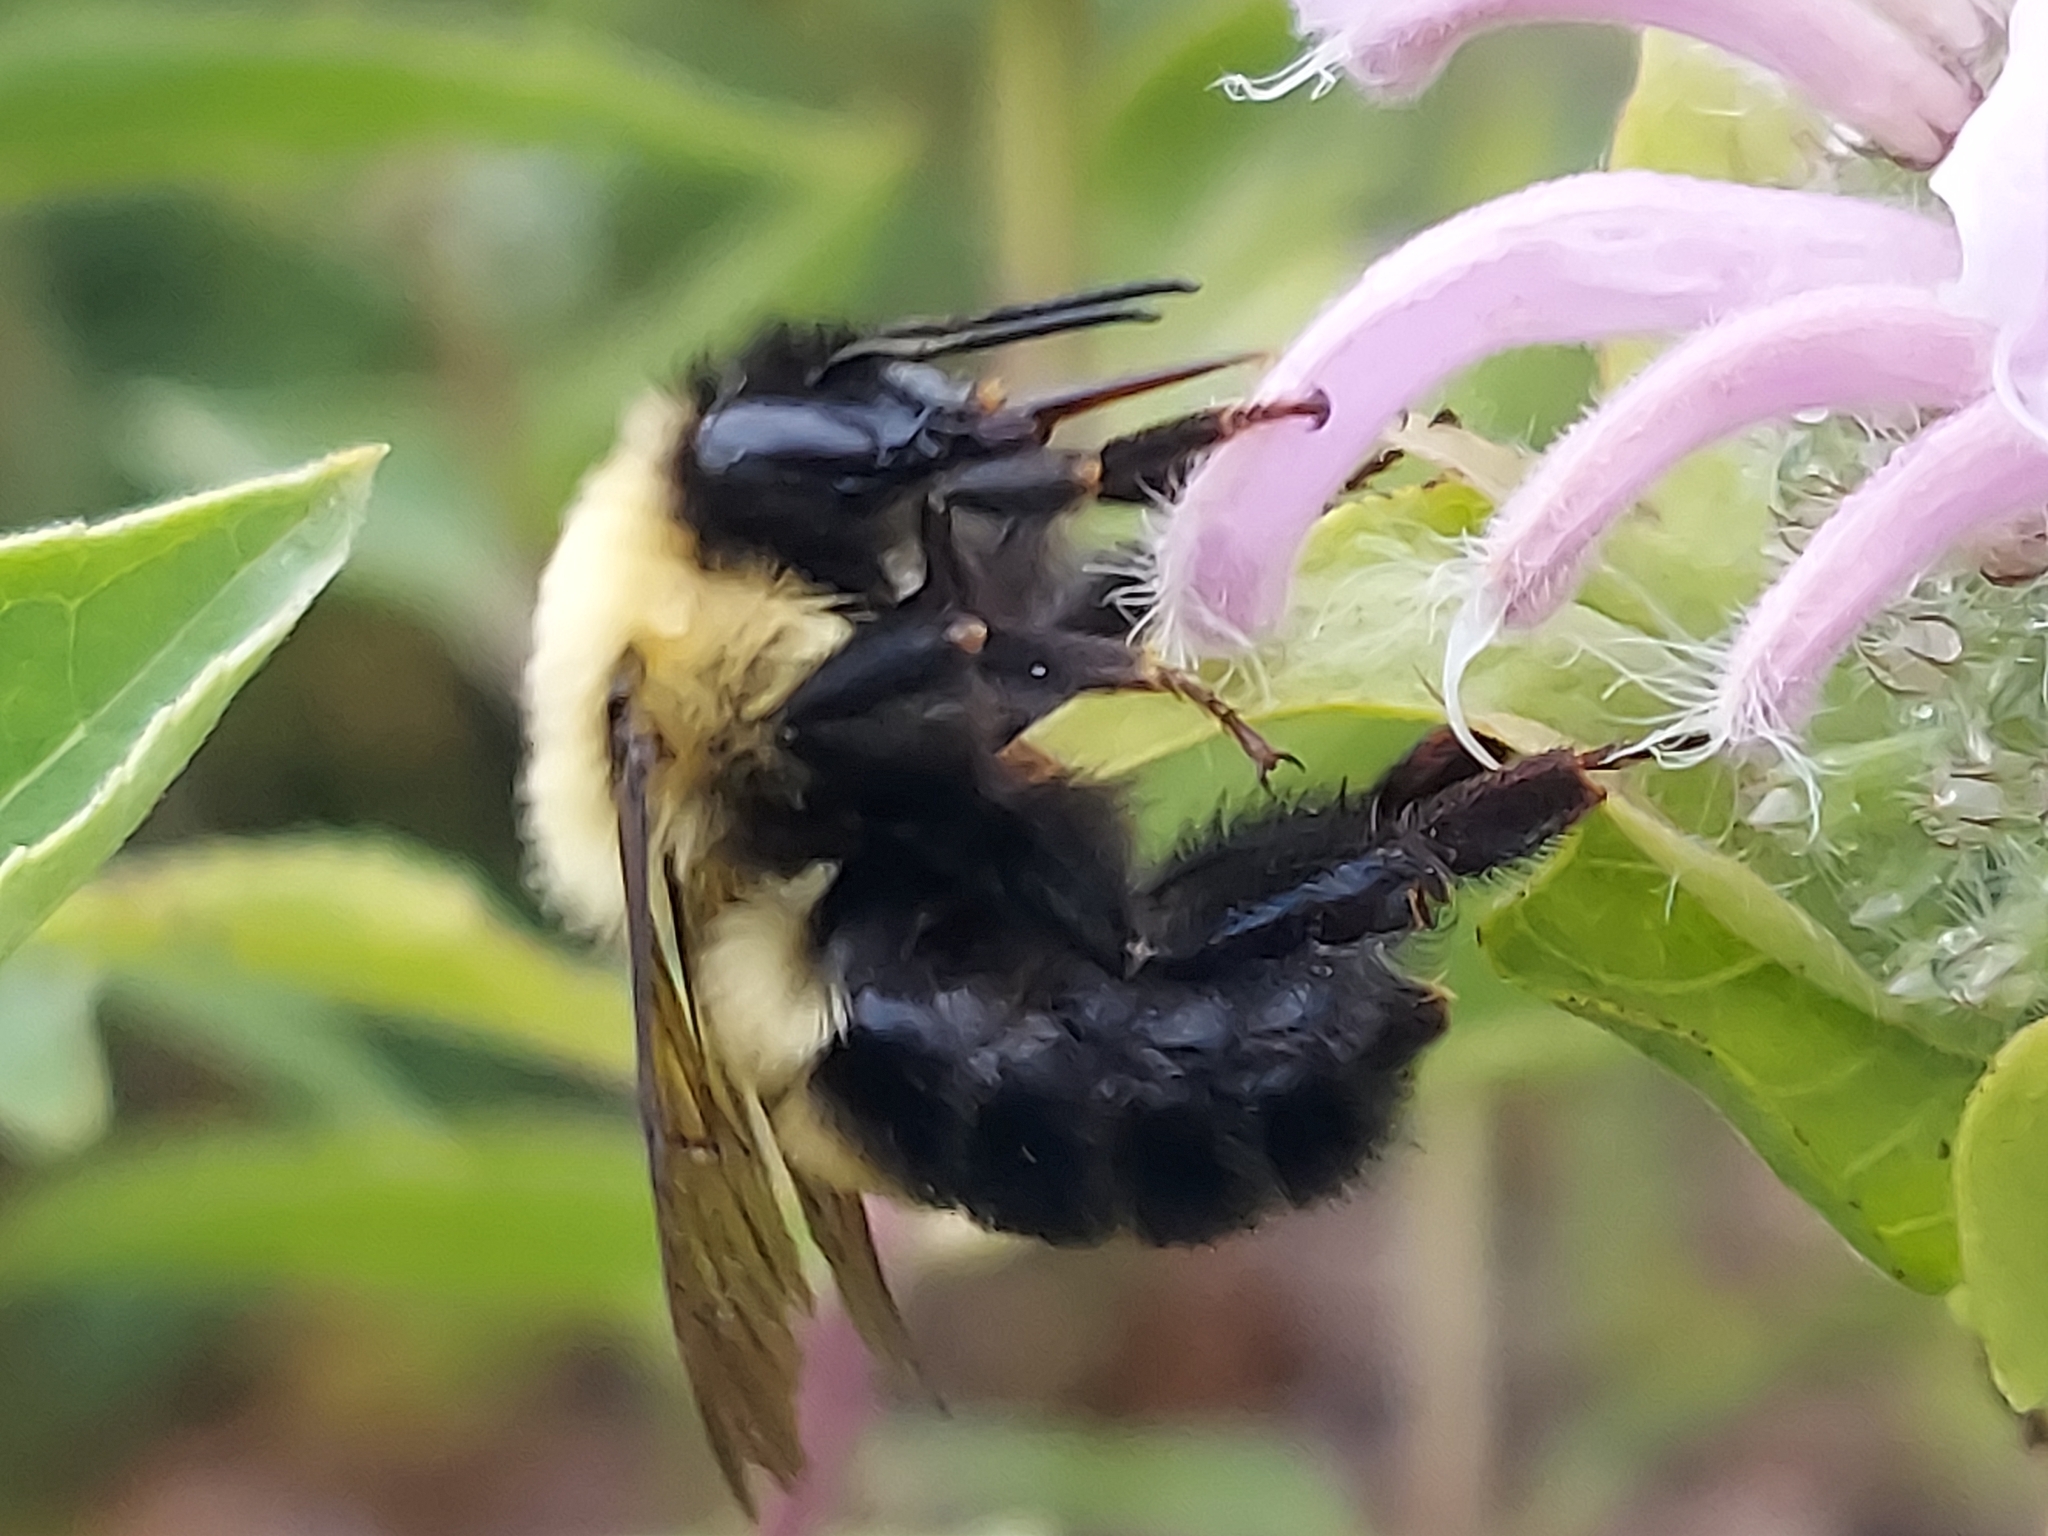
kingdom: Animalia
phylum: Arthropoda
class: Insecta
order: Hymenoptera
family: Apidae
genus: Bombus
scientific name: Bombus bimaculatus
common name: Two-spotted bumble bee
